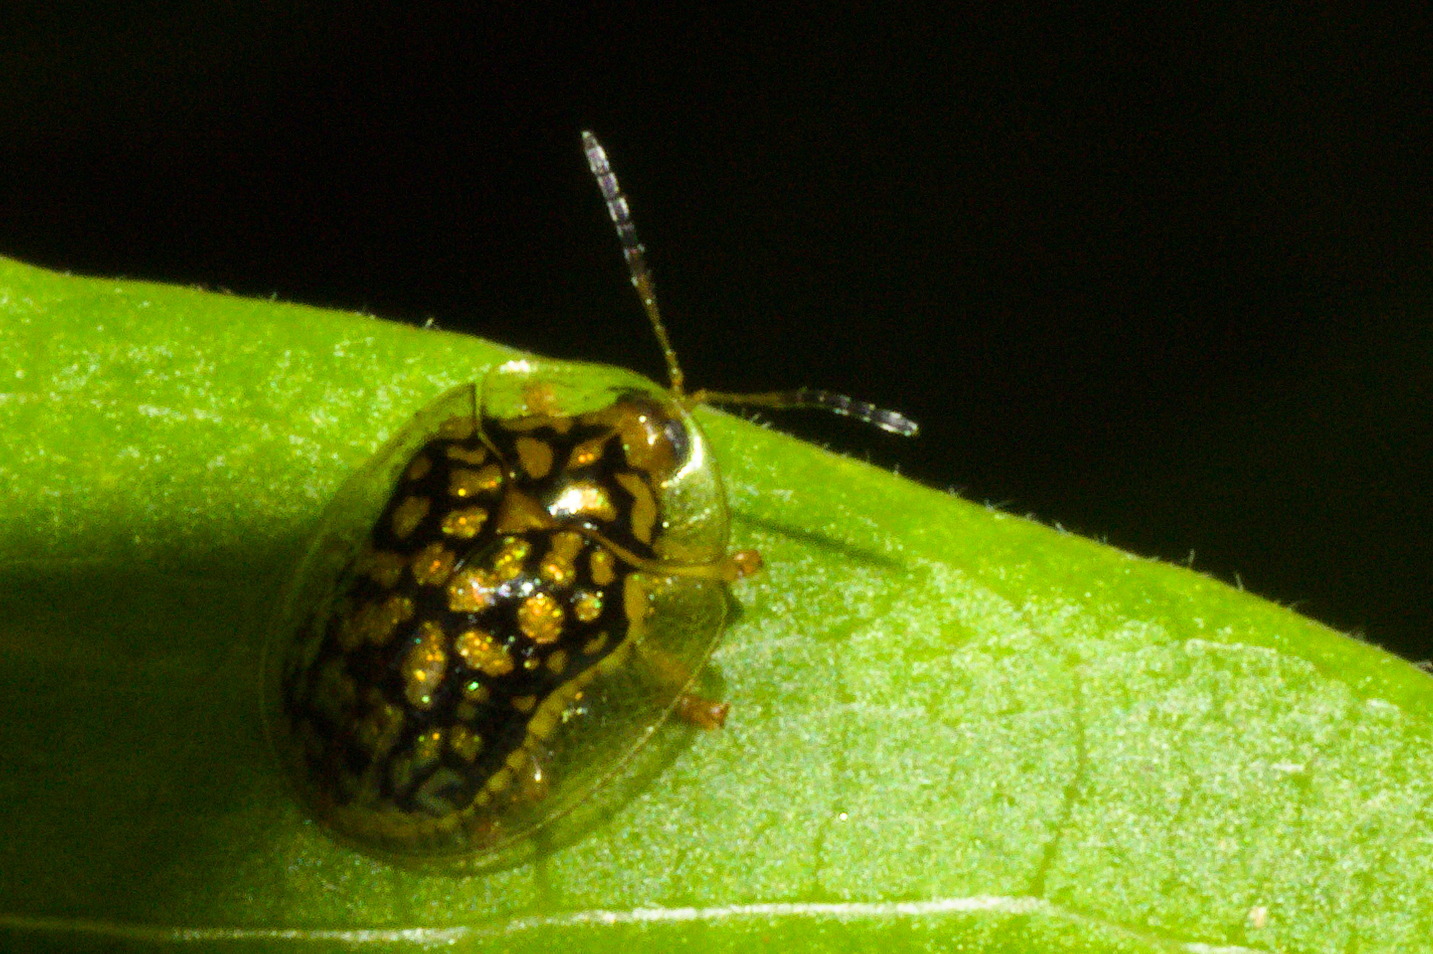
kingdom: Animalia
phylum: Arthropoda
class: Insecta
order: Coleoptera
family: Chrysomelidae
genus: Cteisella
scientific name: Cteisella confusa
